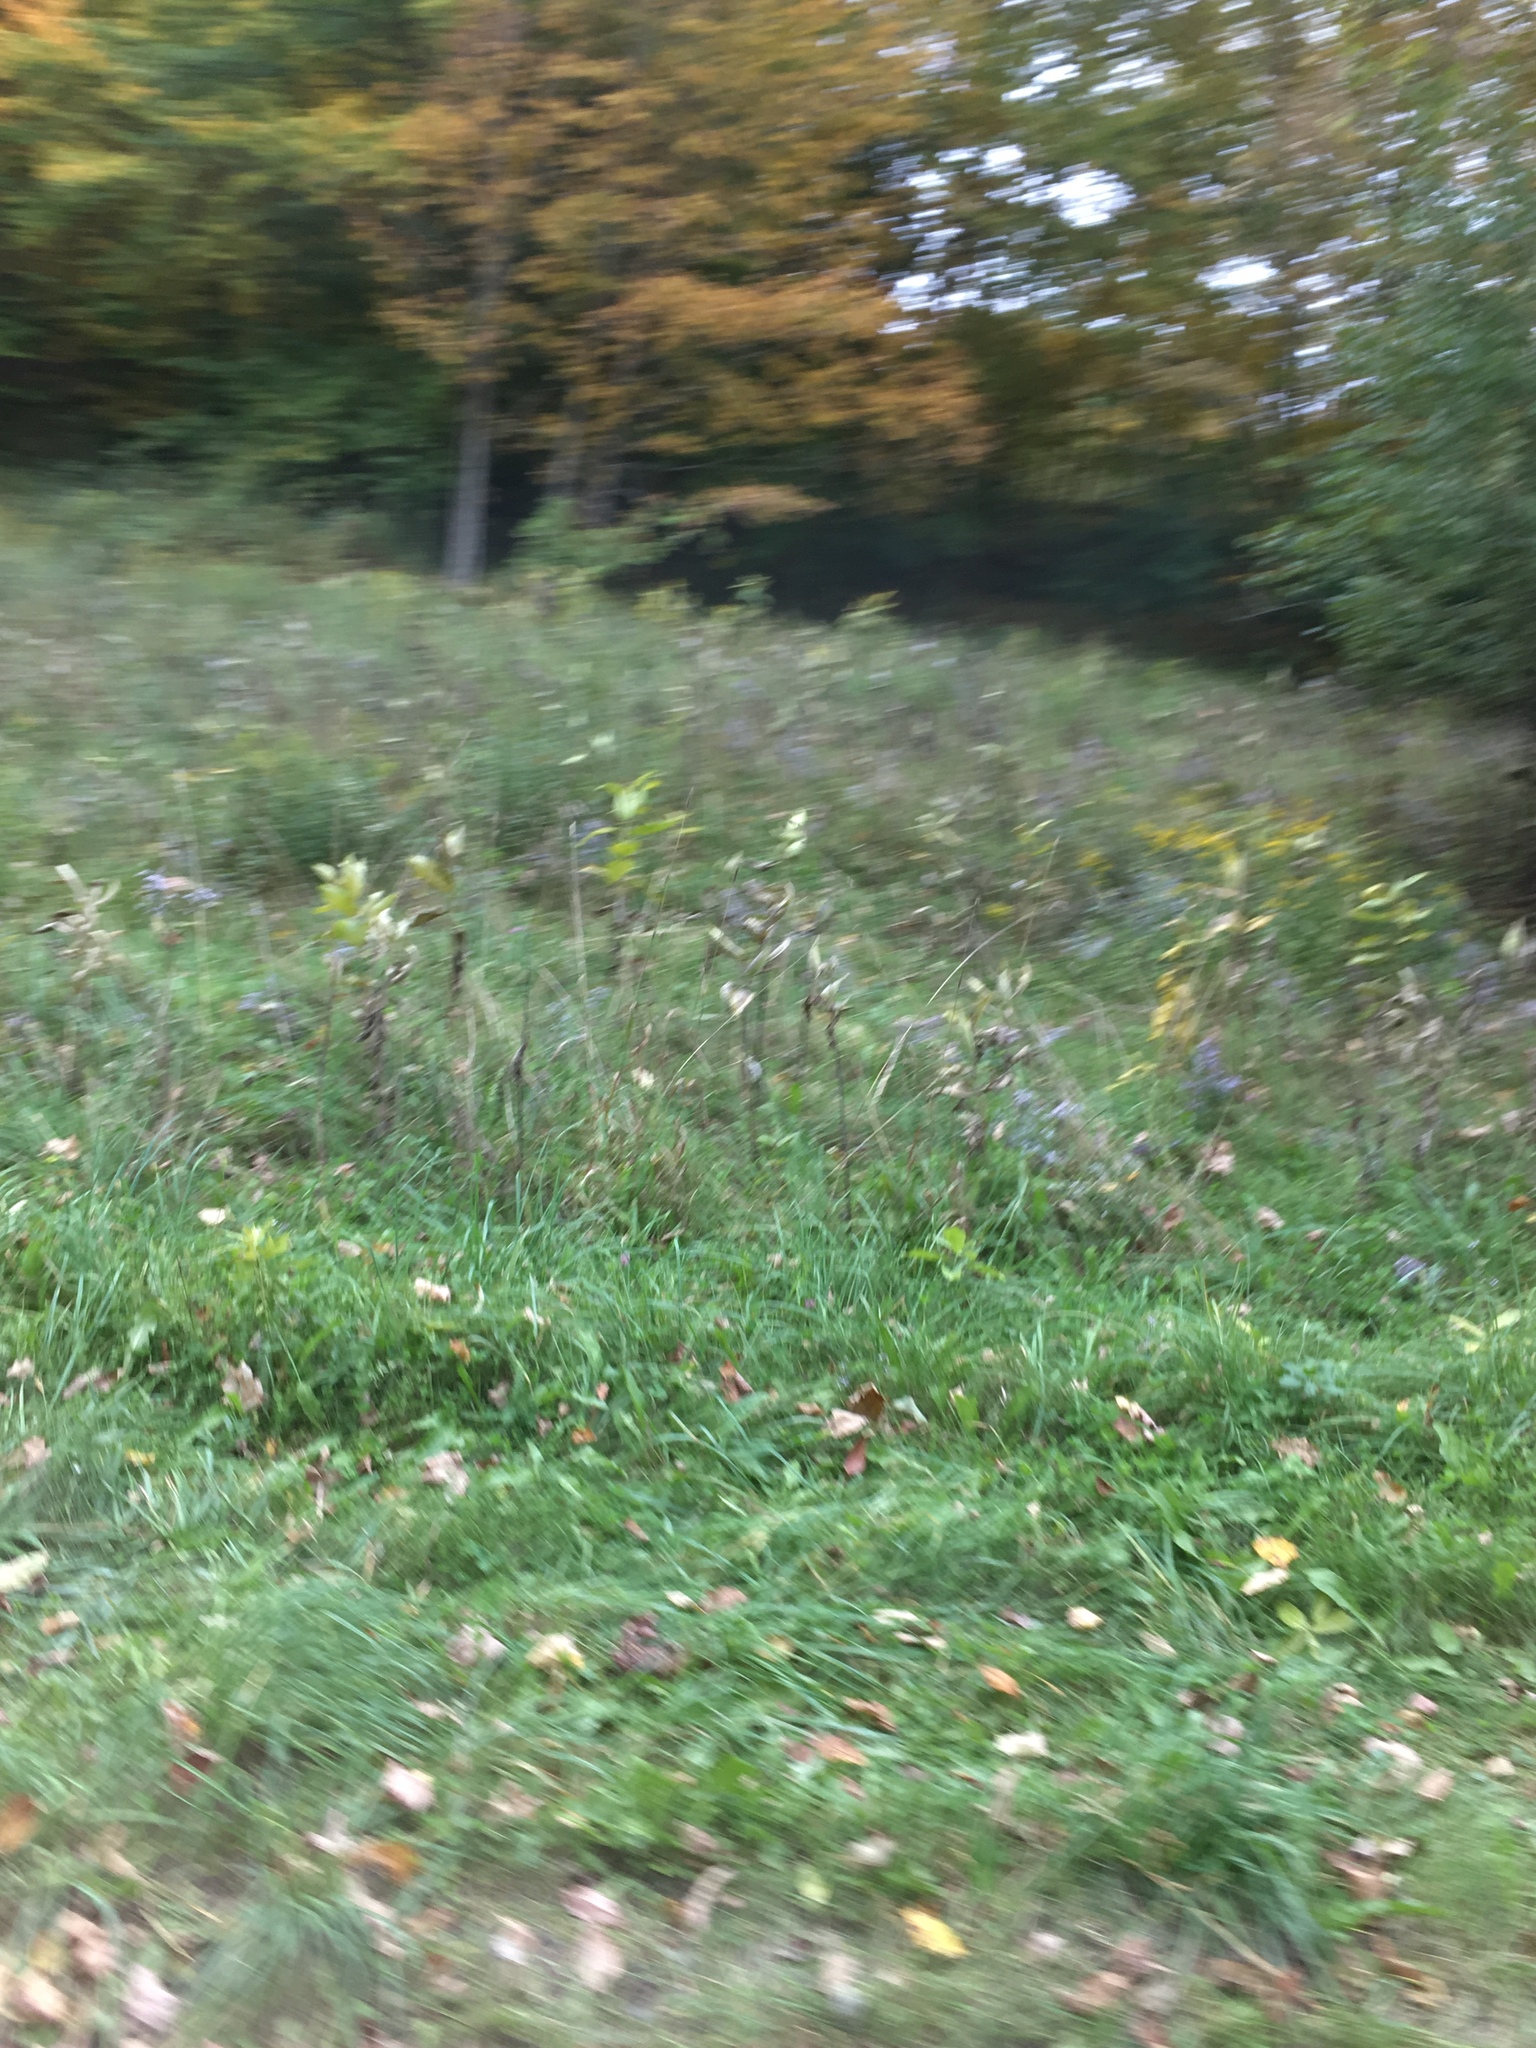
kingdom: Plantae
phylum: Tracheophyta
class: Magnoliopsida
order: Gentianales
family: Apocynaceae
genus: Asclepias
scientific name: Asclepias syriaca
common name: Common milkweed
